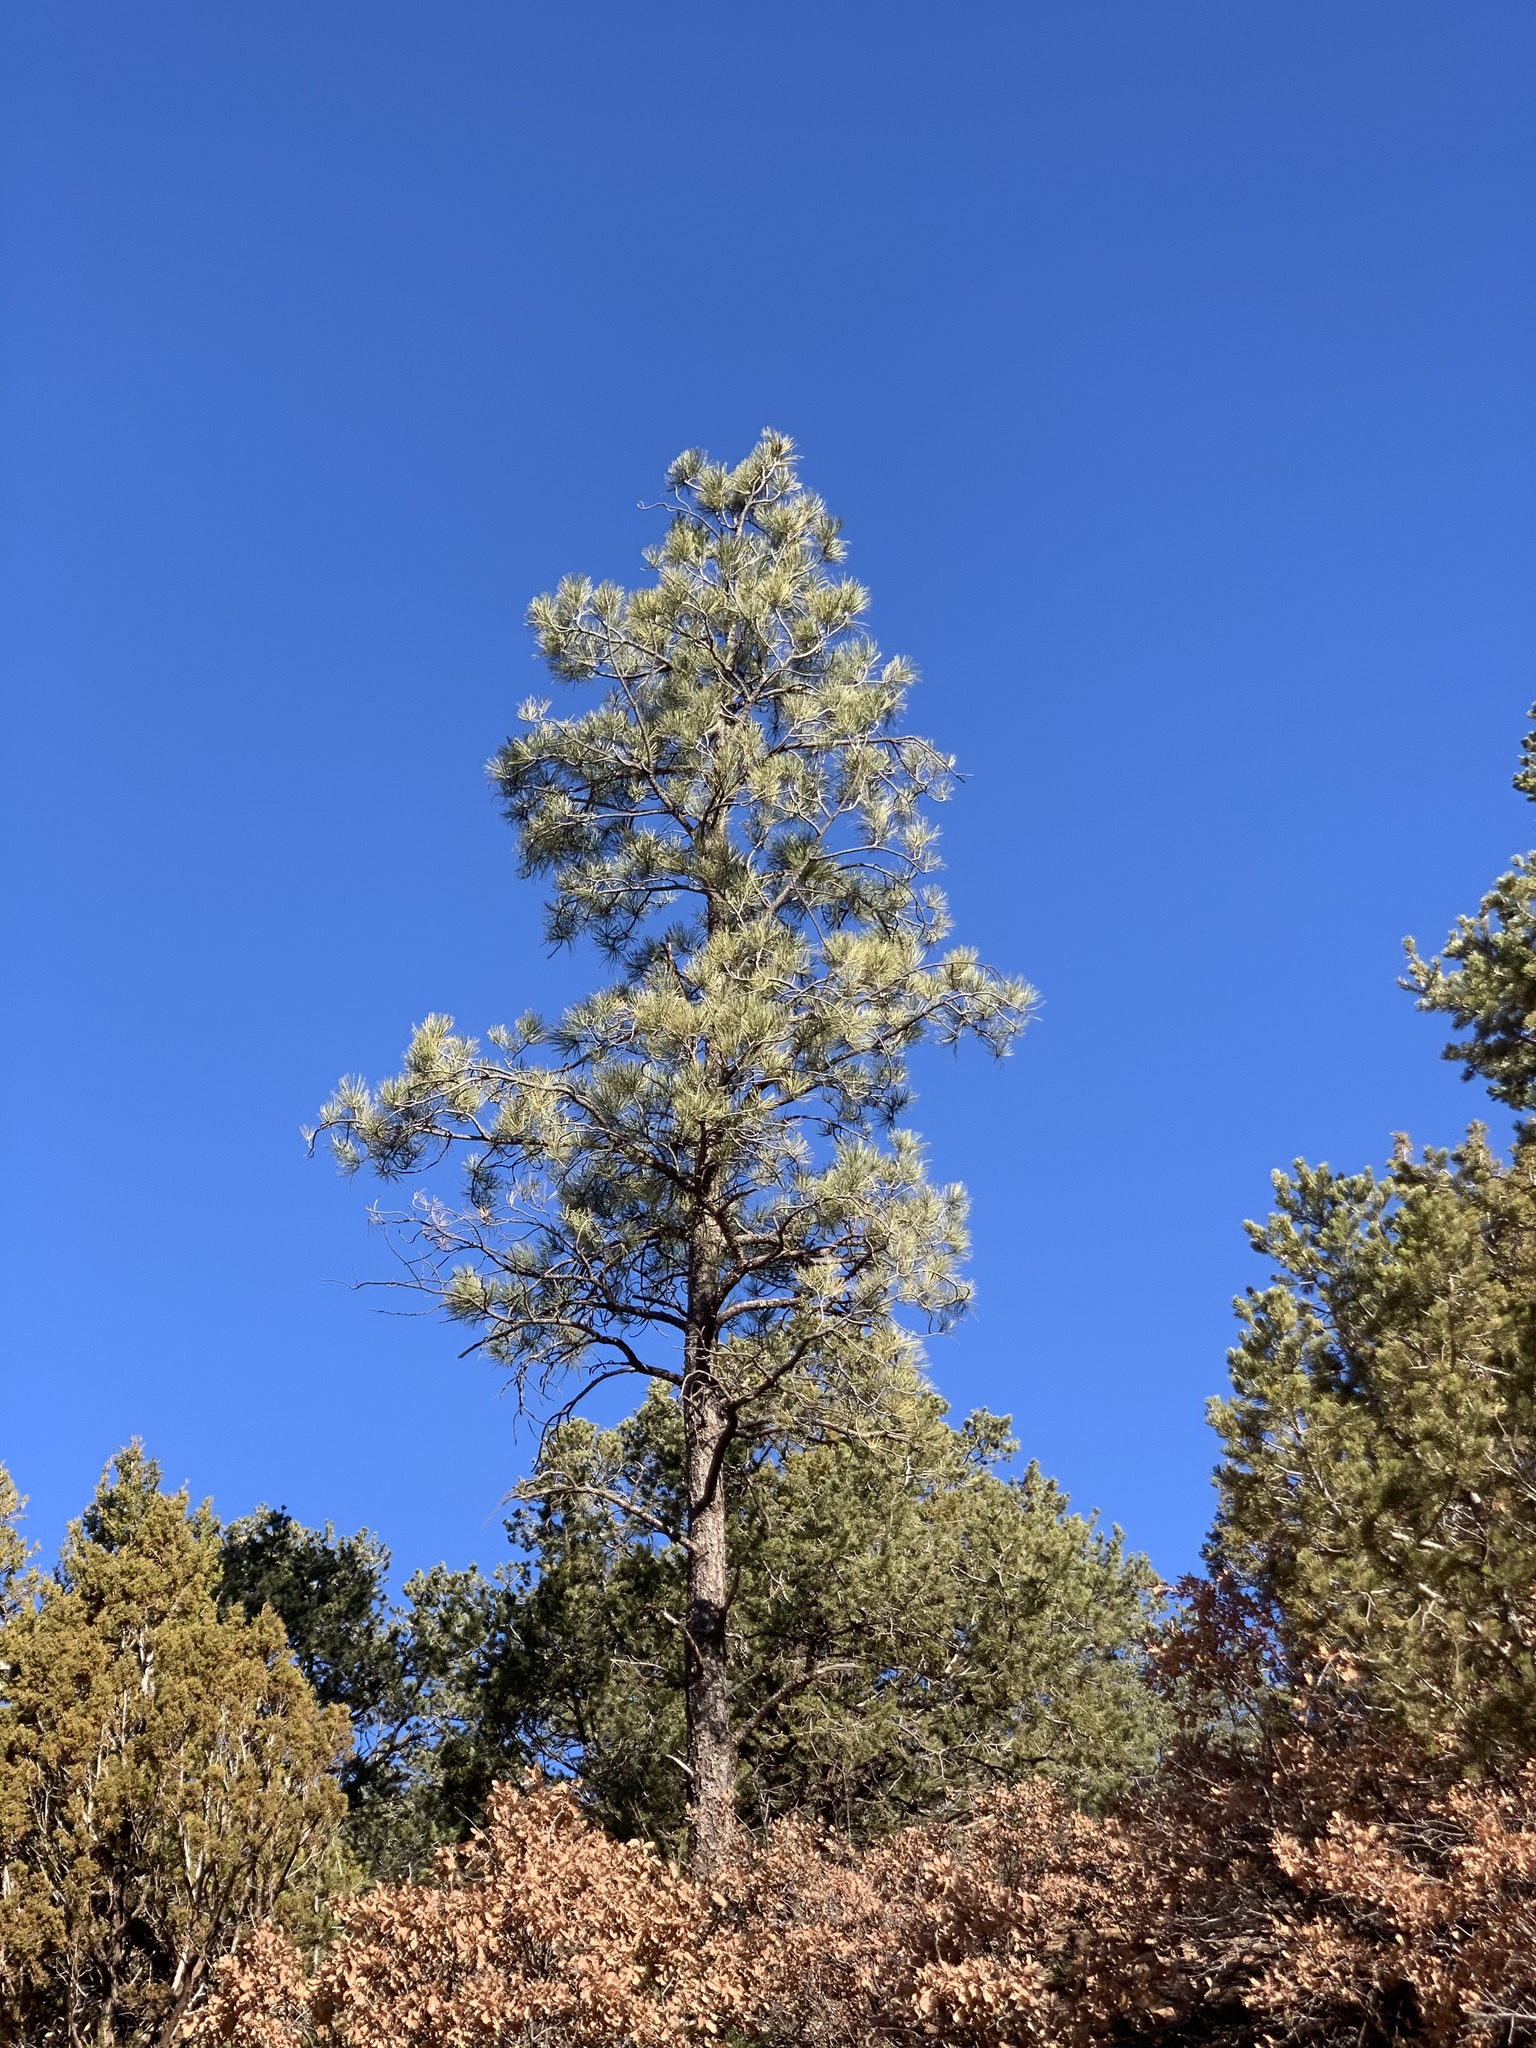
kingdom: Plantae
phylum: Tracheophyta
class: Pinopsida
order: Pinales
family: Pinaceae
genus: Pinus
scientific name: Pinus ponderosa
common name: Western yellow-pine
